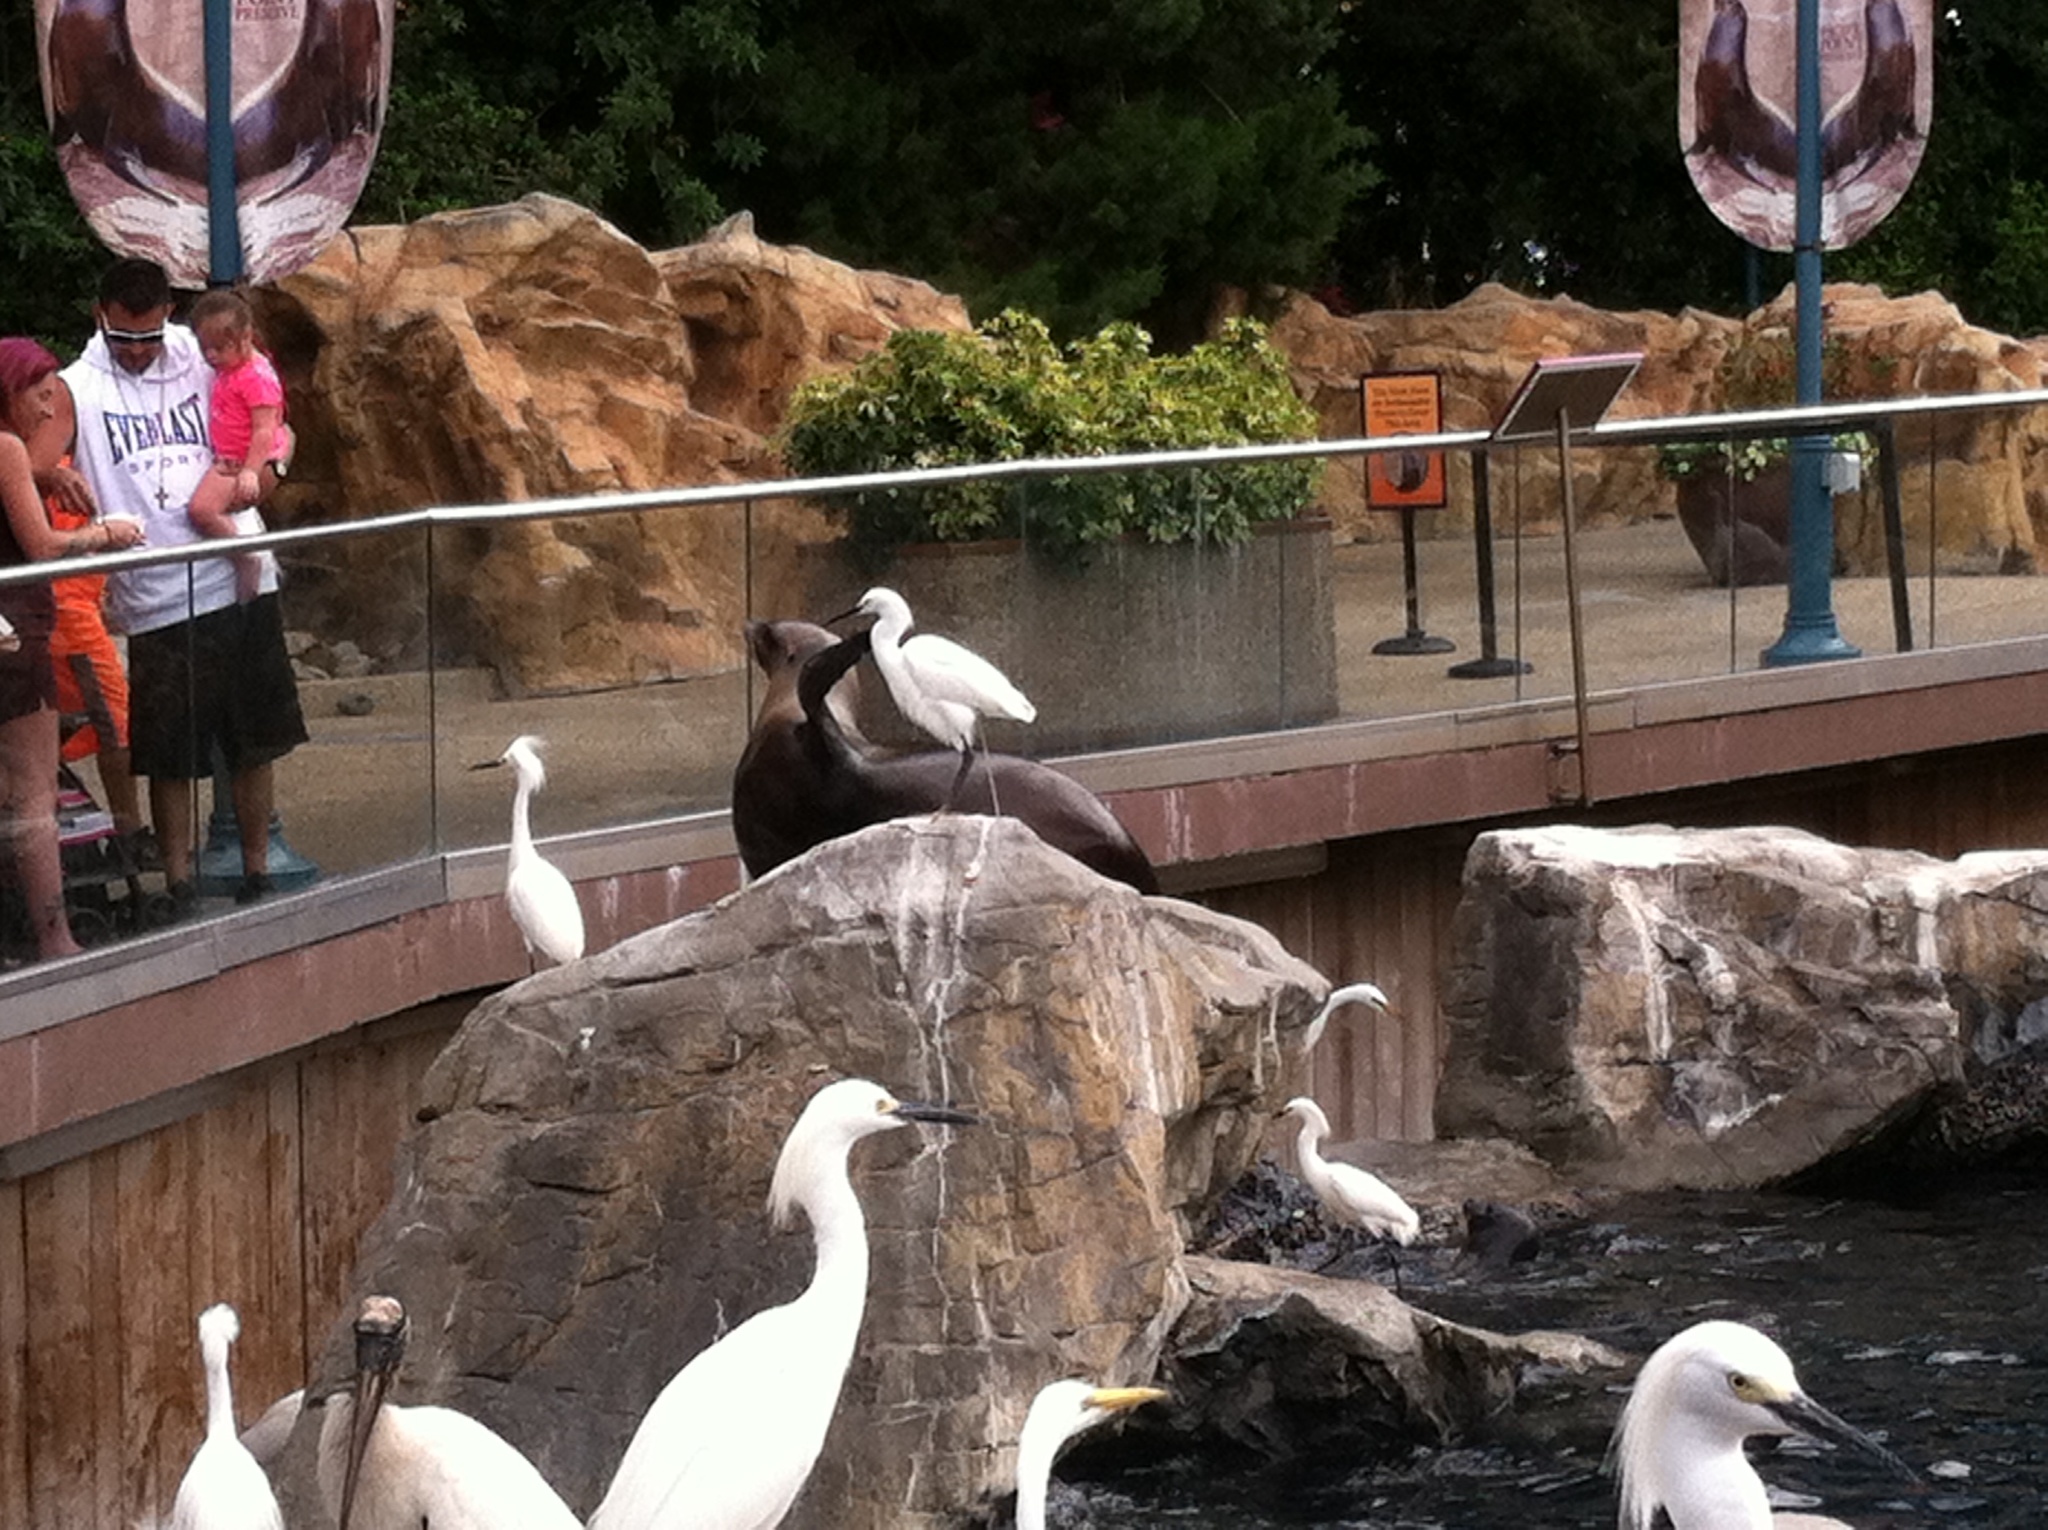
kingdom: Animalia
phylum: Chordata
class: Aves
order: Pelecaniformes
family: Ardeidae
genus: Egretta
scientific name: Egretta thula
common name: Snowy egret
